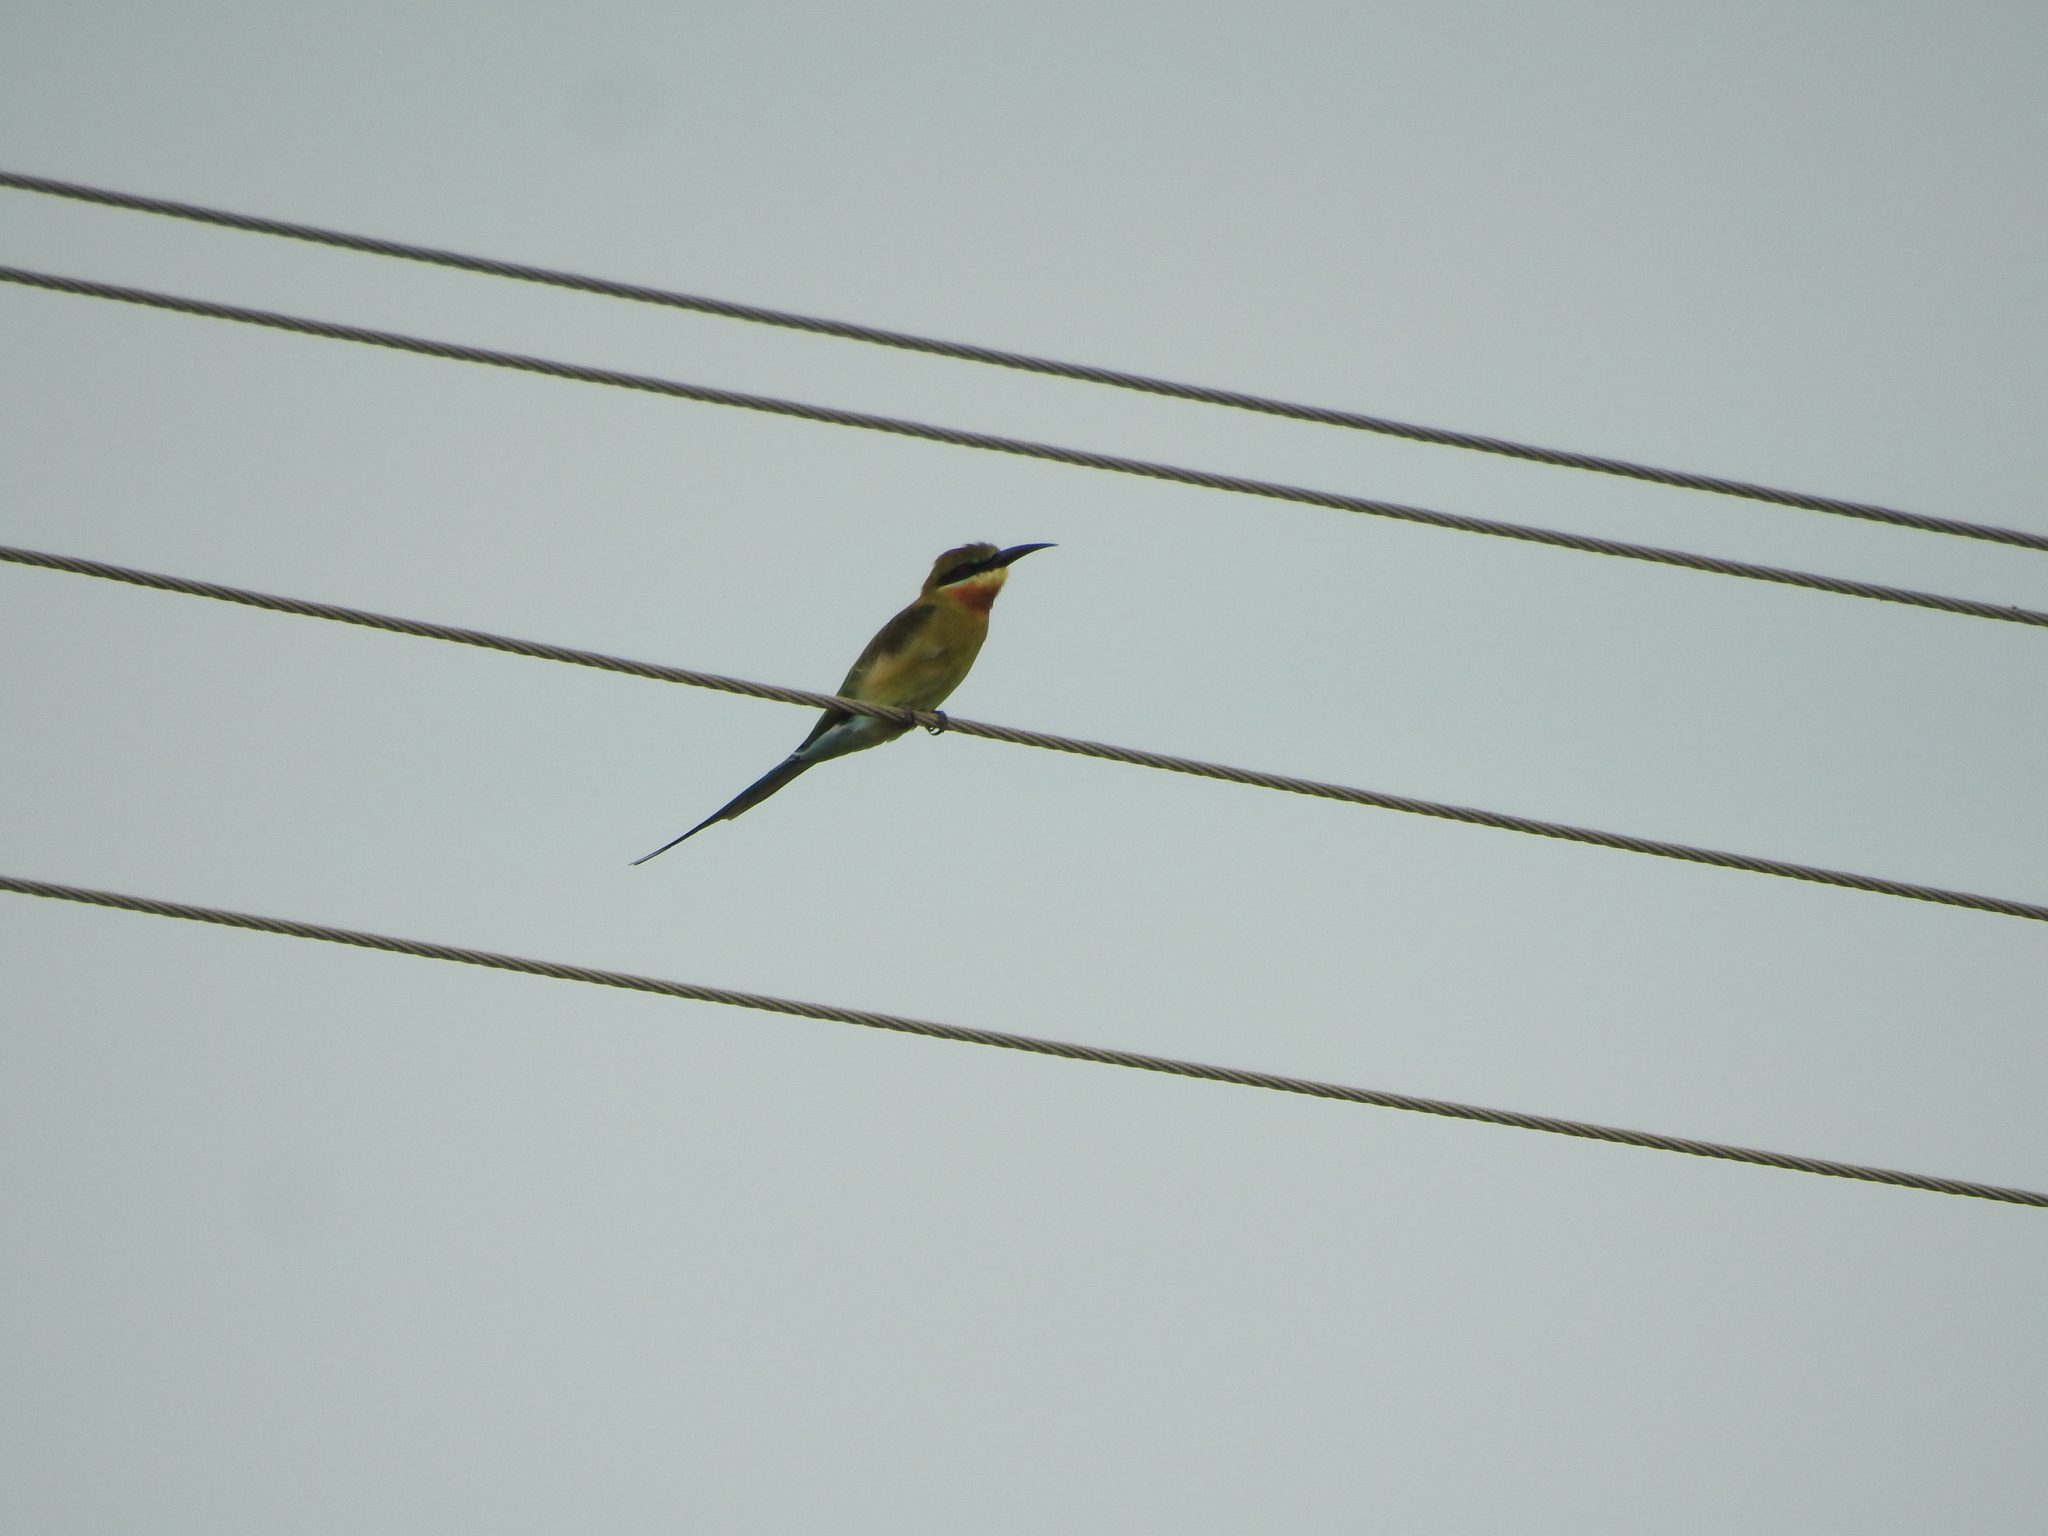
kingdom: Animalia
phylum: Chordata
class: Aves
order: Coraciiformes
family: Meropidae
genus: Merops
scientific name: Merops philippinus
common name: Blue-tailed bee-eater
